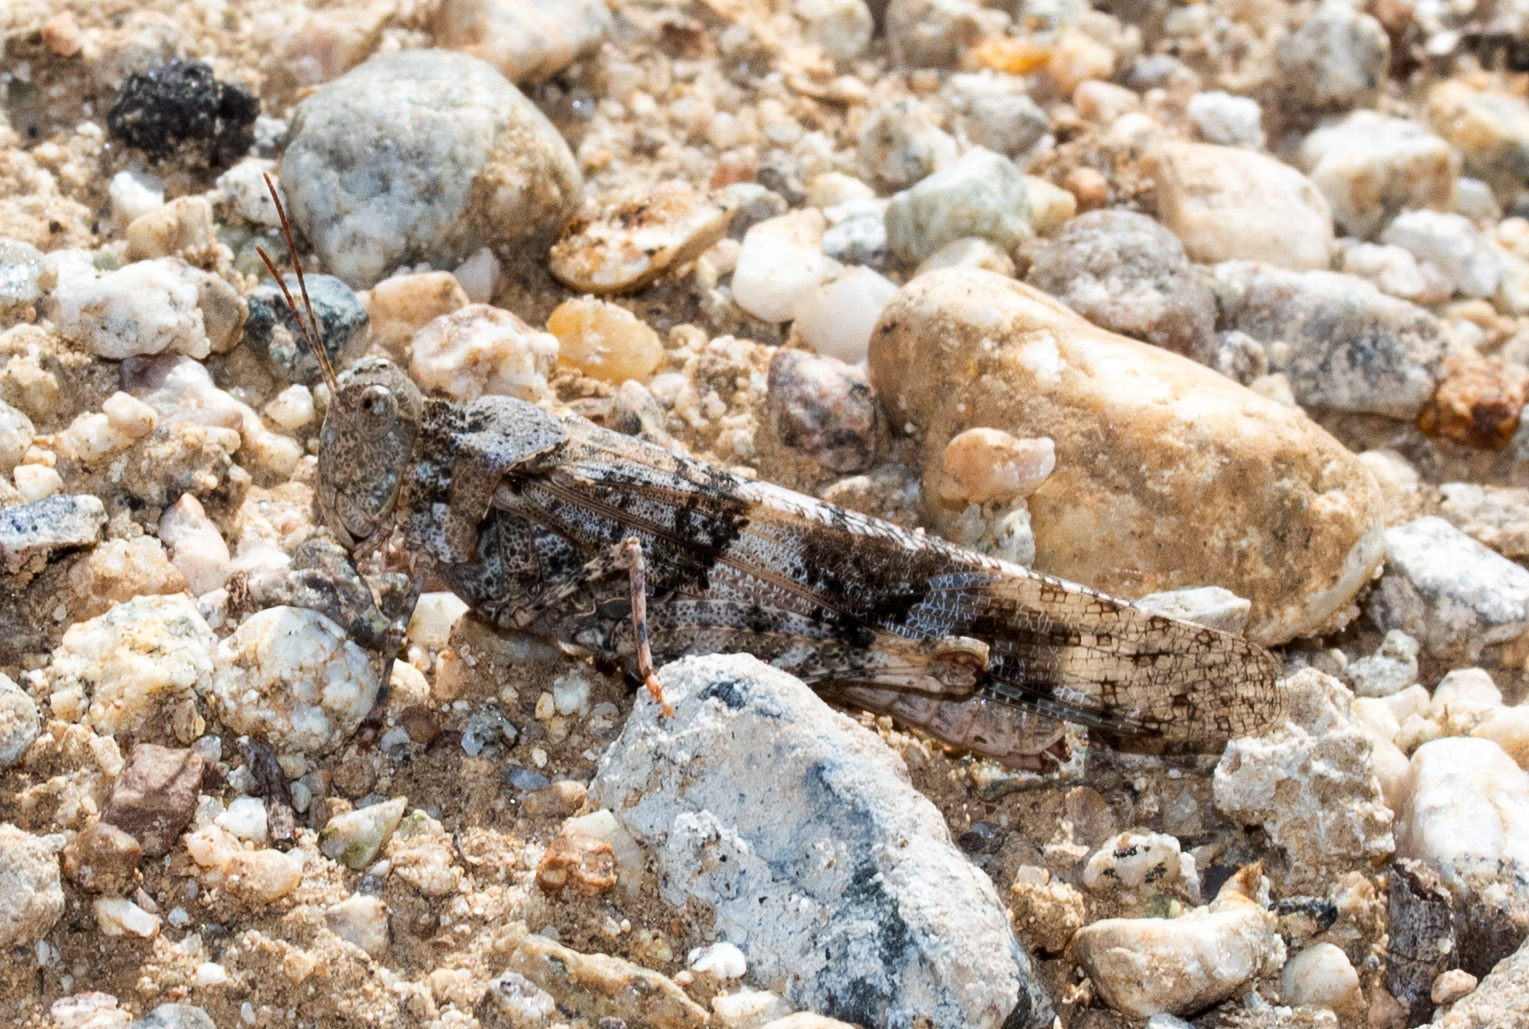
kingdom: Animalia
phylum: Arthropoda
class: Insecta
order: Orthoptera
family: Acrididae
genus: Trimerotropis
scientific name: Trimerotropis pallidipennis
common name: Pallid-winged grasshopper
